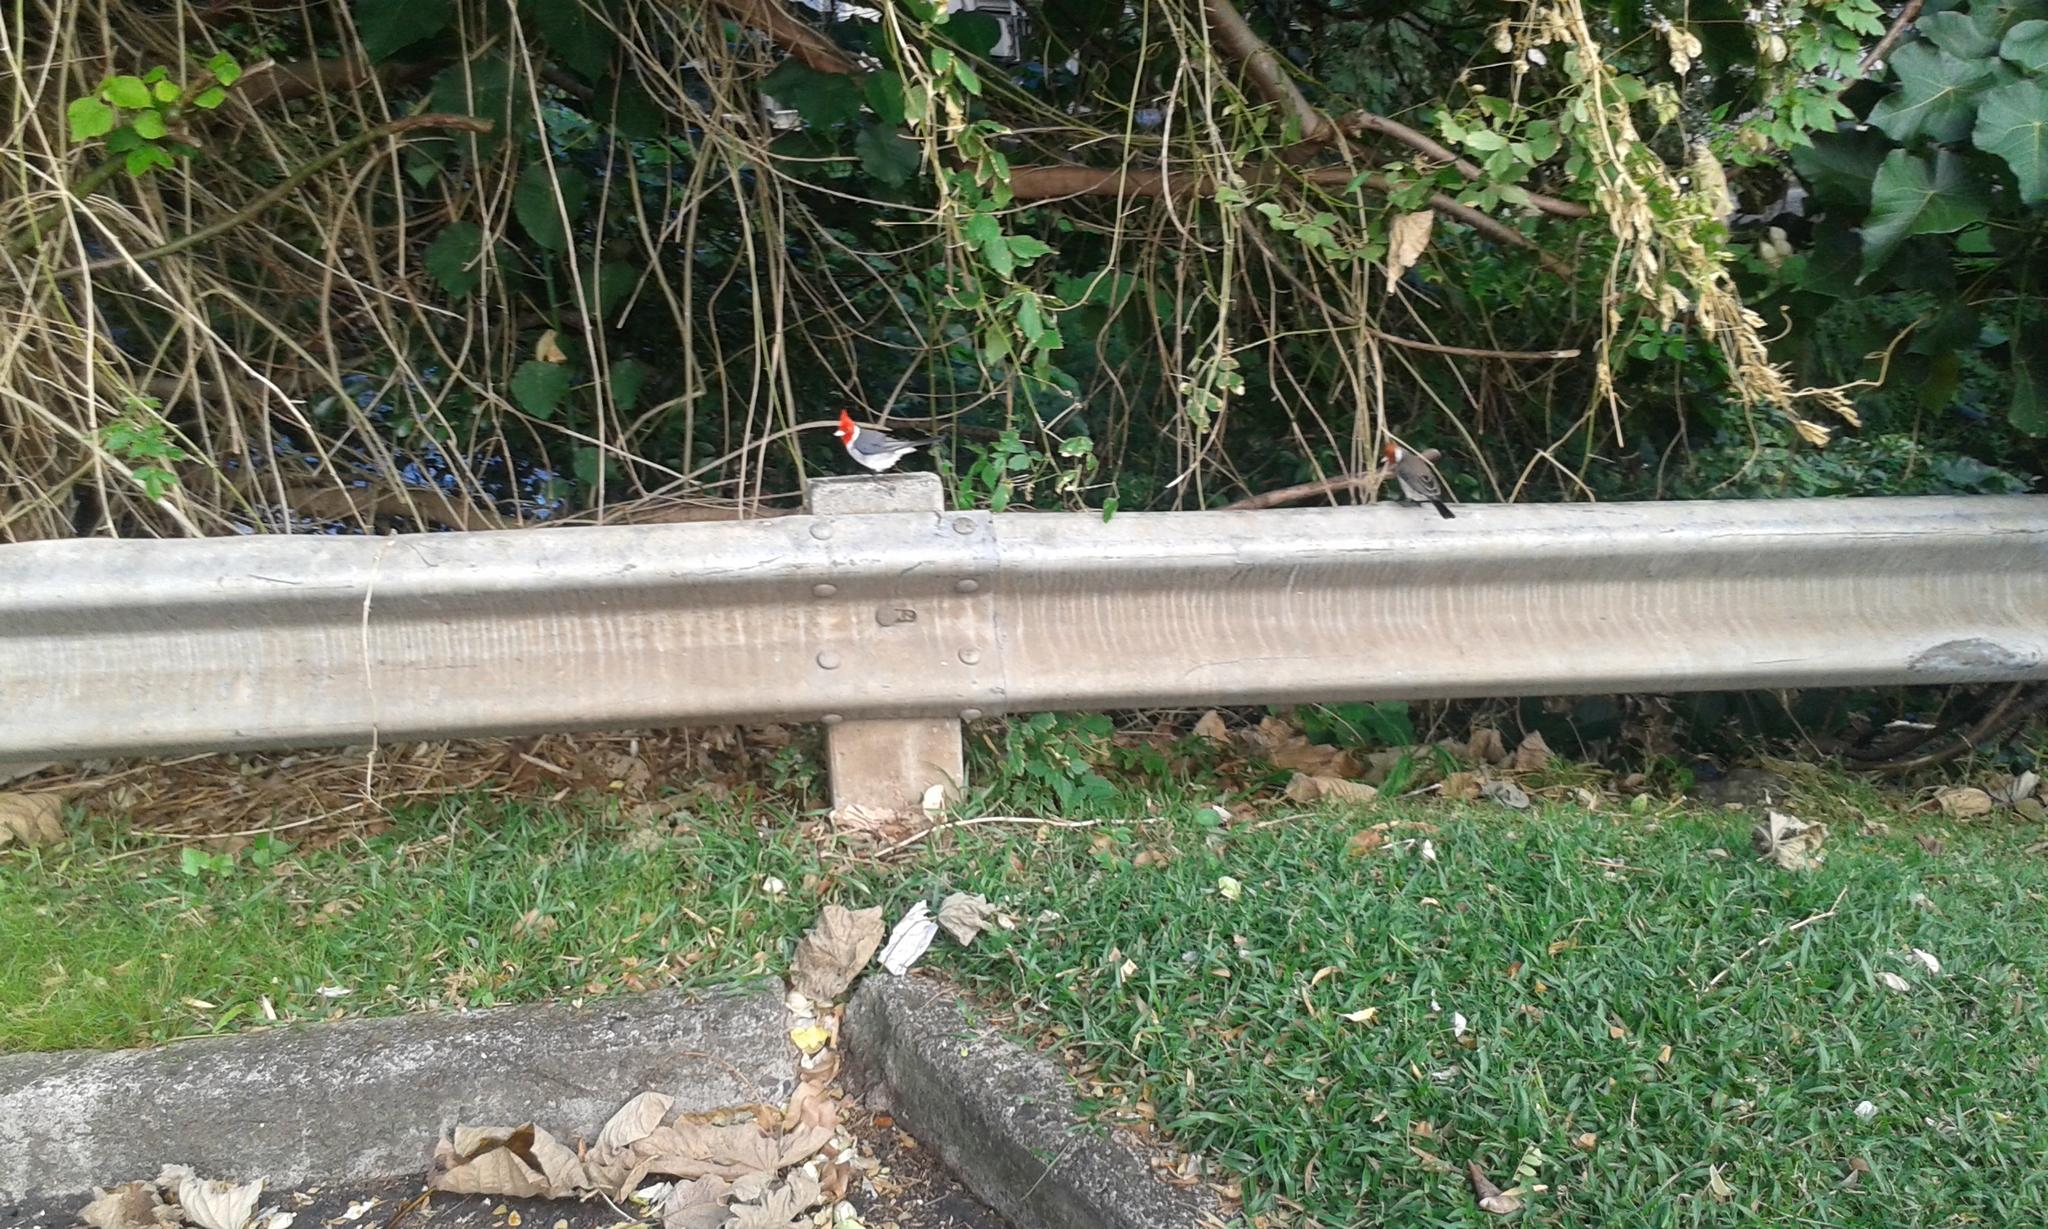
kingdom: Animalia
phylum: Chordata
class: Aves
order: Passeriformes
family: Thraupidae
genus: Paroaria
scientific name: Paroaria coronata
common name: Red-crested cardinal
